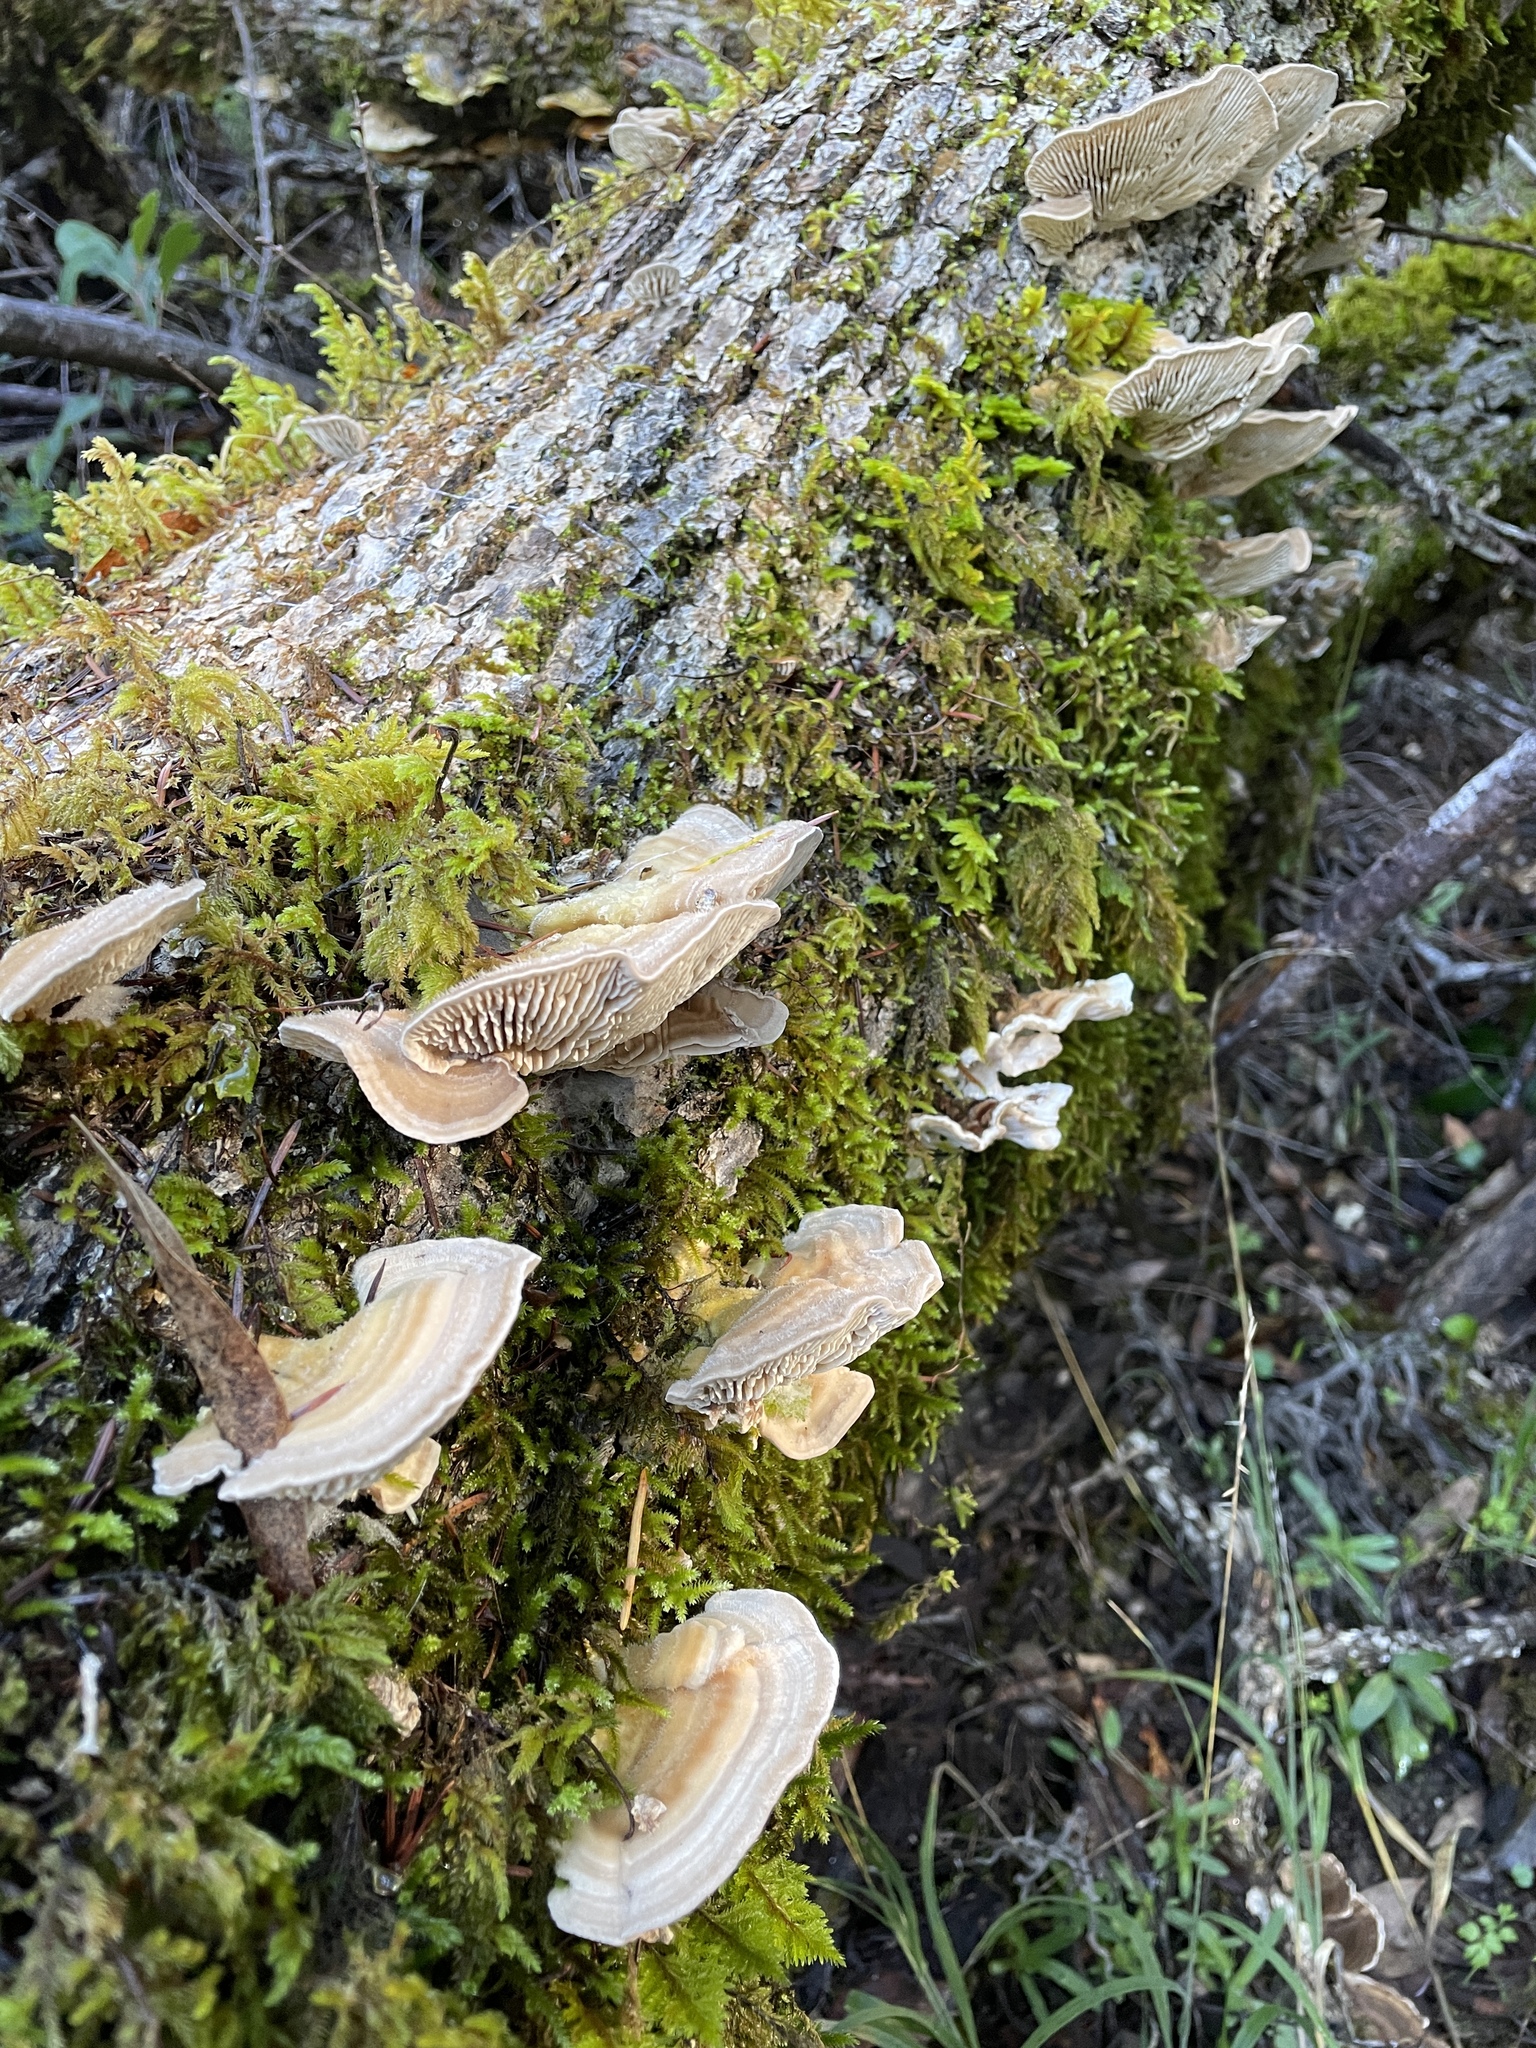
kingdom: Fungi
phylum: Basidiomycota
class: Agaricomycetes
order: Polyporales
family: Polyporaceae
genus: Lenzites
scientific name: Lenzites betulinus
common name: Birch mazegill
